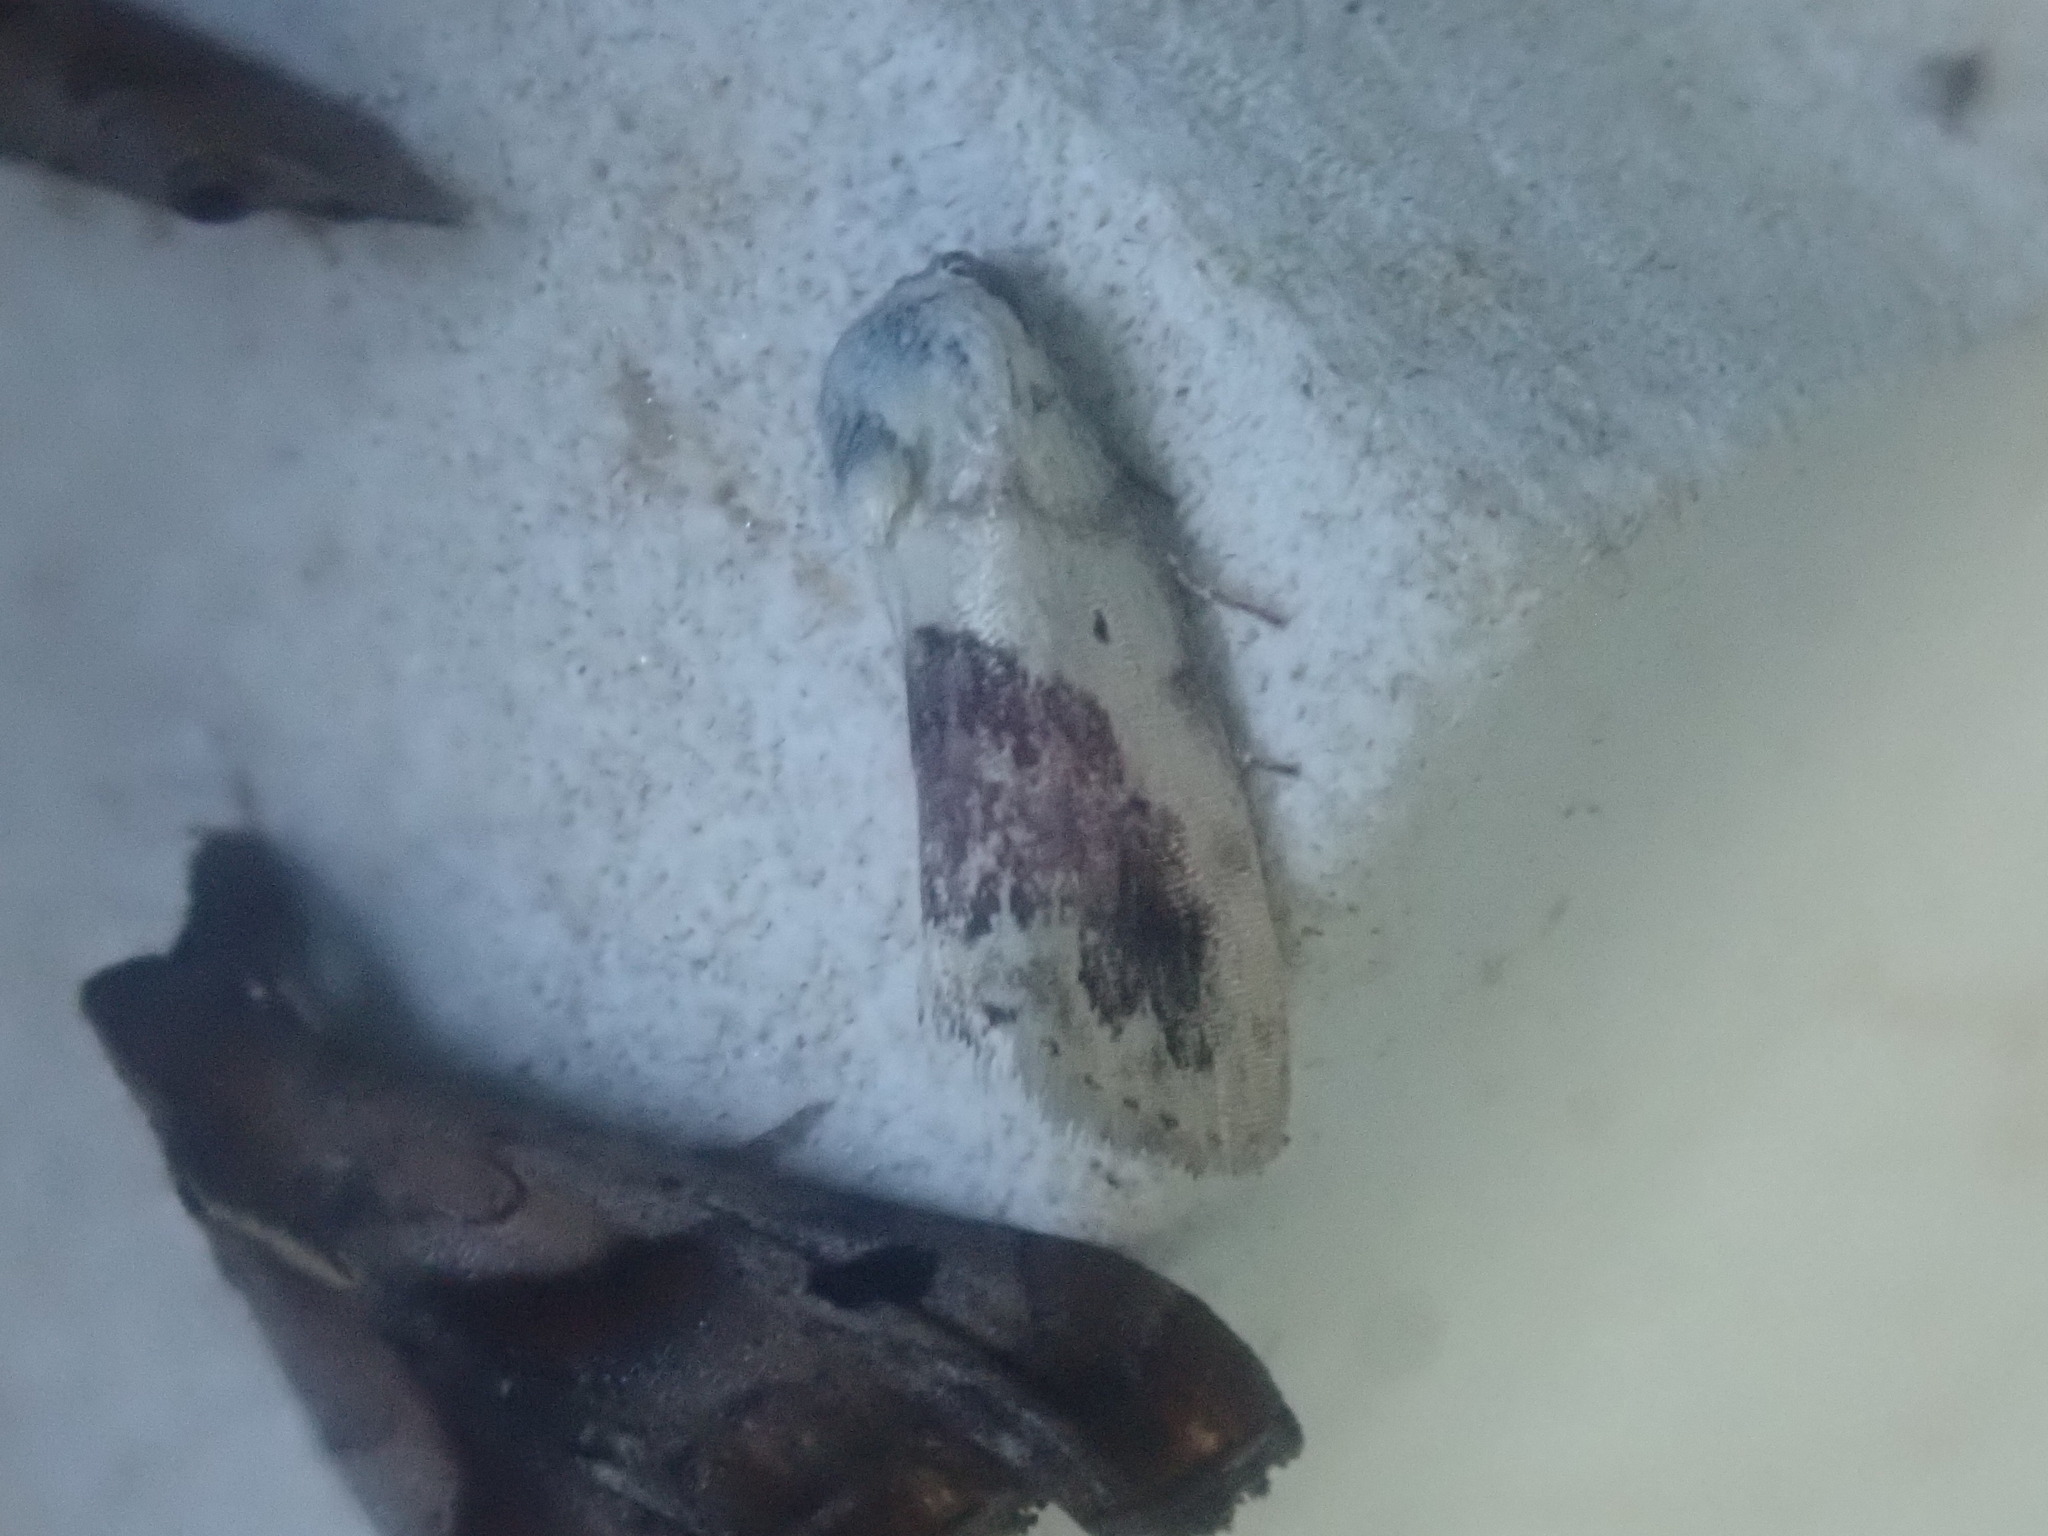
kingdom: Animalia
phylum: Arthropoda
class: Insecta
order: Lepidoptera
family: Noctuidae
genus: Acontia
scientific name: Acontia erastrioides
